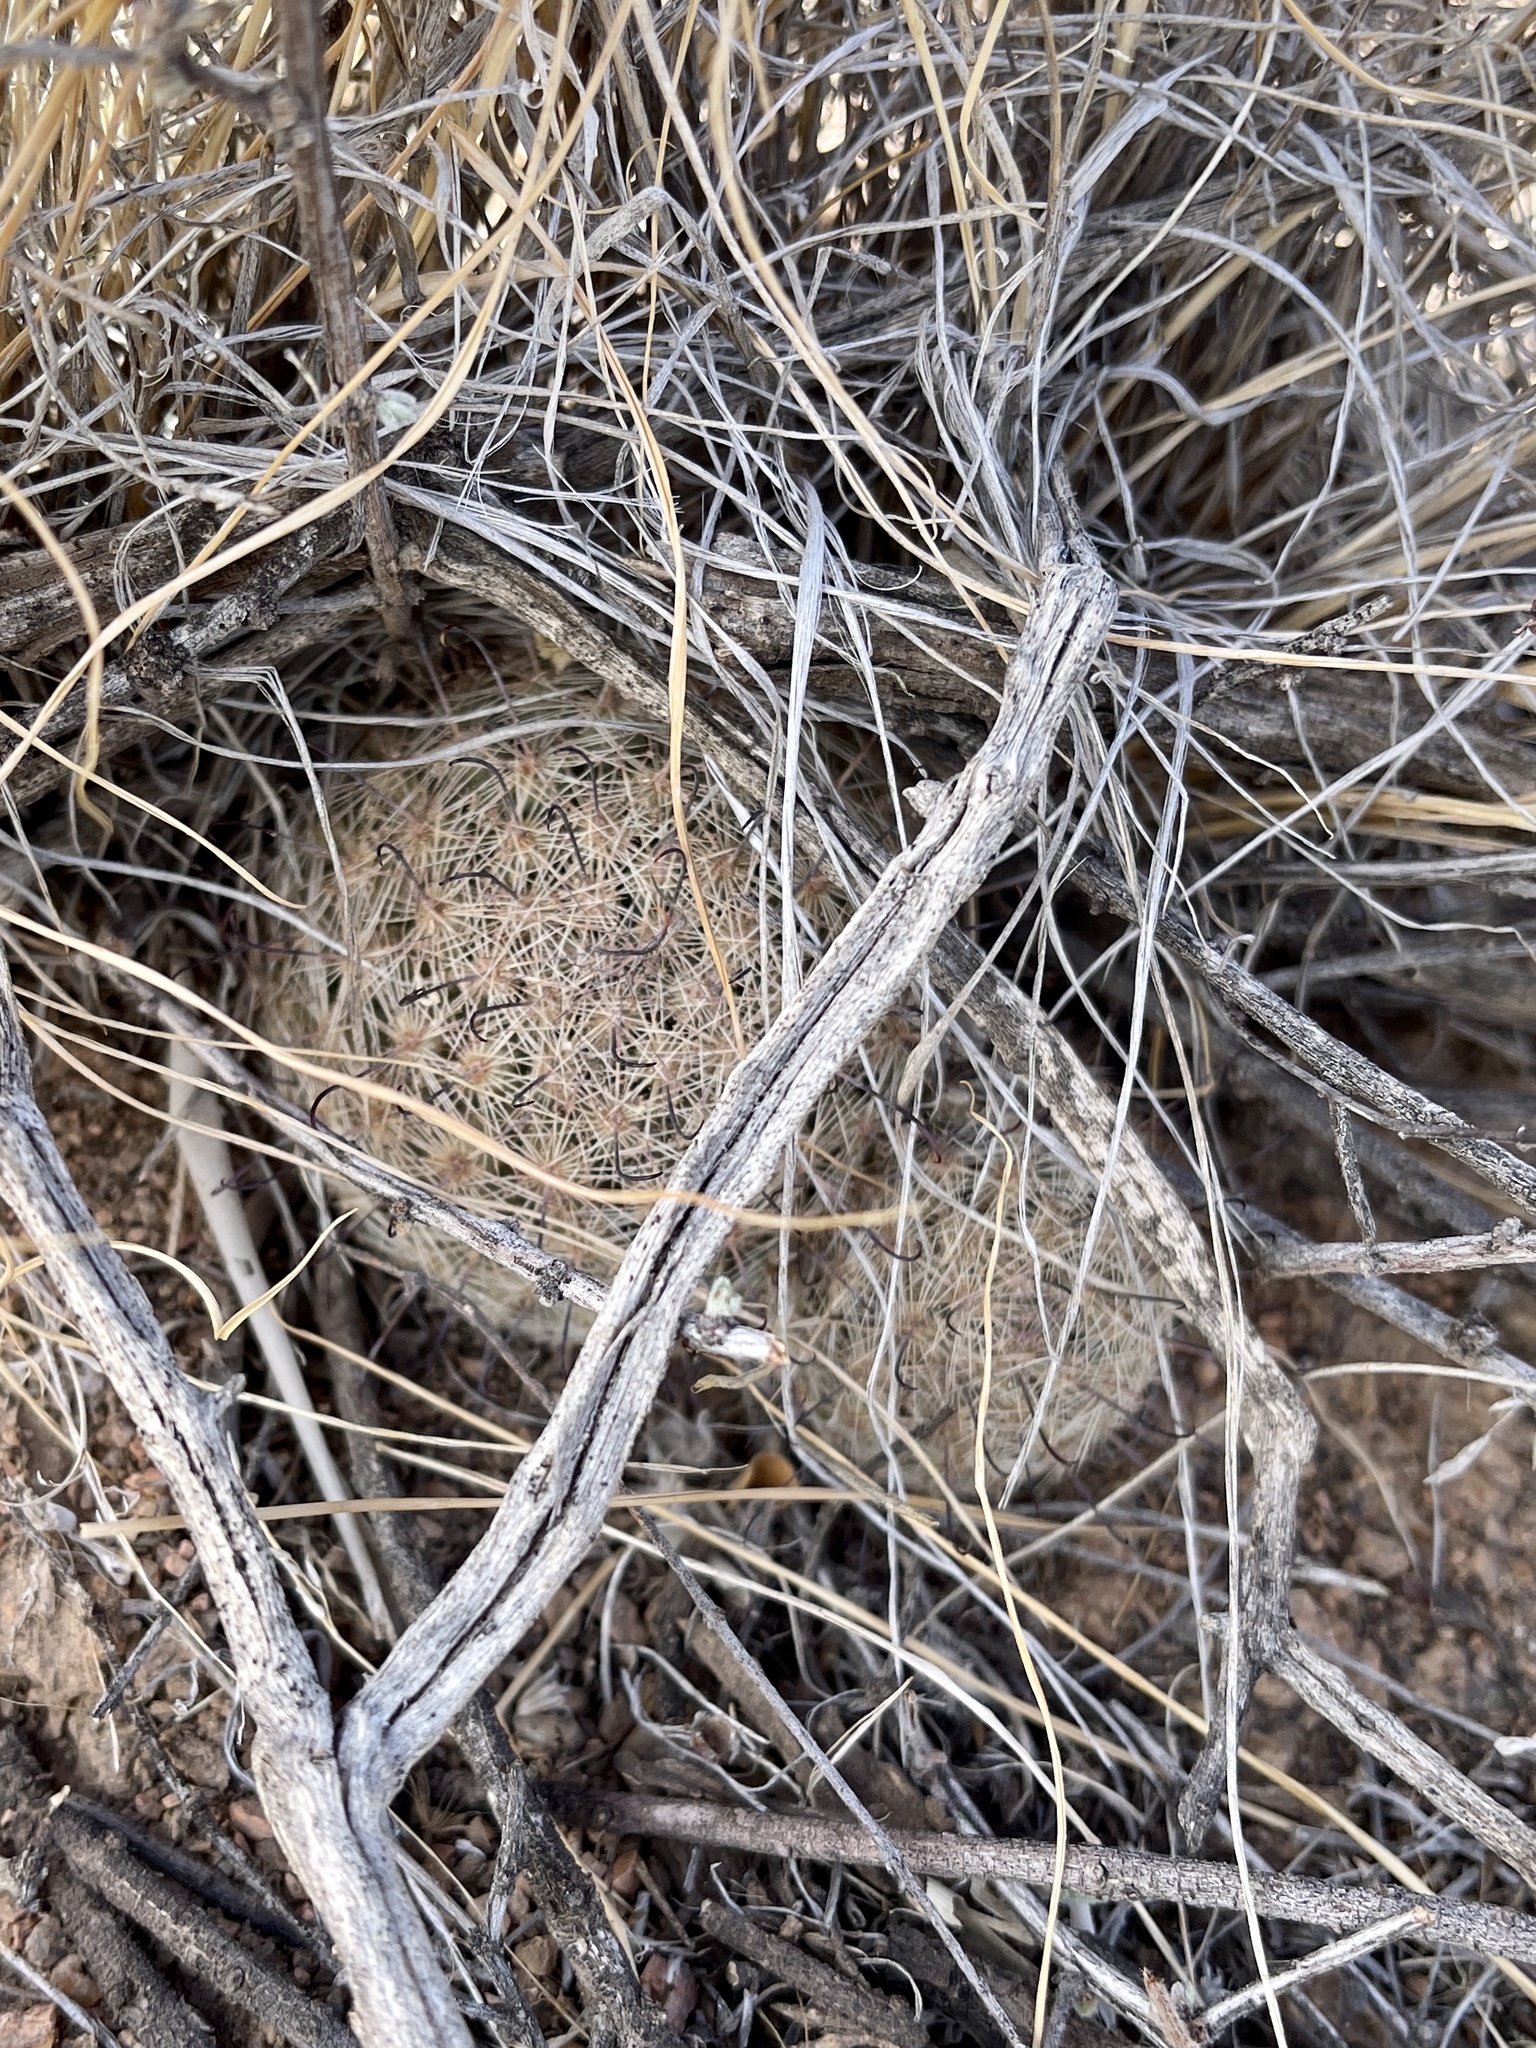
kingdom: Plantae
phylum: Tracheophyta
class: Magnoliopsida
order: Caryophyllales
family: Cactaceae
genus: Cochemiea
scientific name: Cochemiea grahamii
